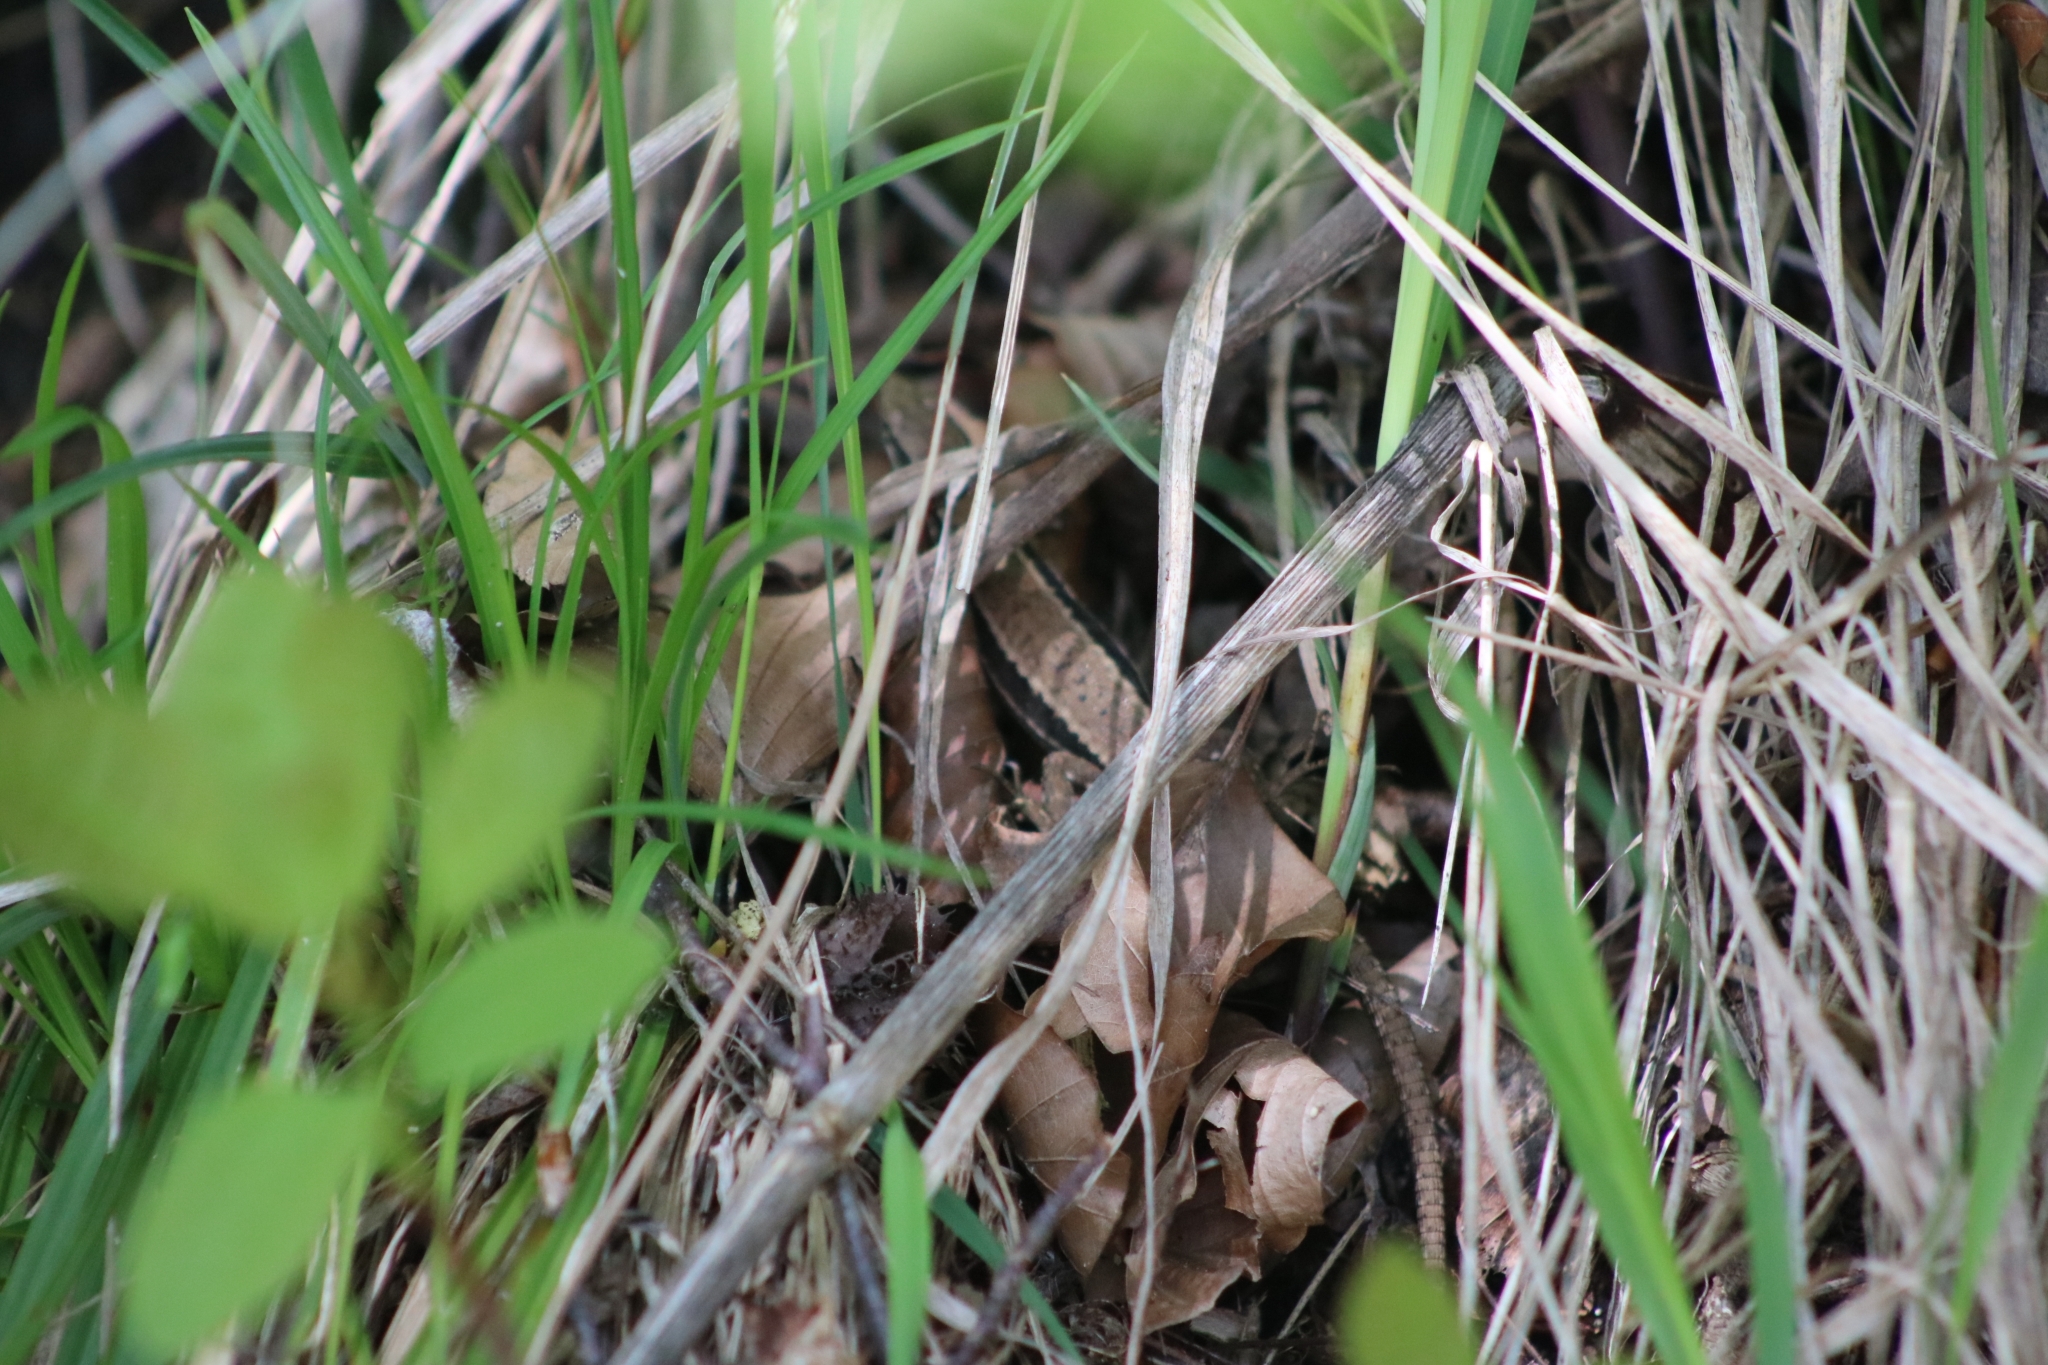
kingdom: Animalia
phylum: Chordata
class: Squamata
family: Lacertidae
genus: Podarcis
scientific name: Podarcis muralis
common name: Common wall lizard
